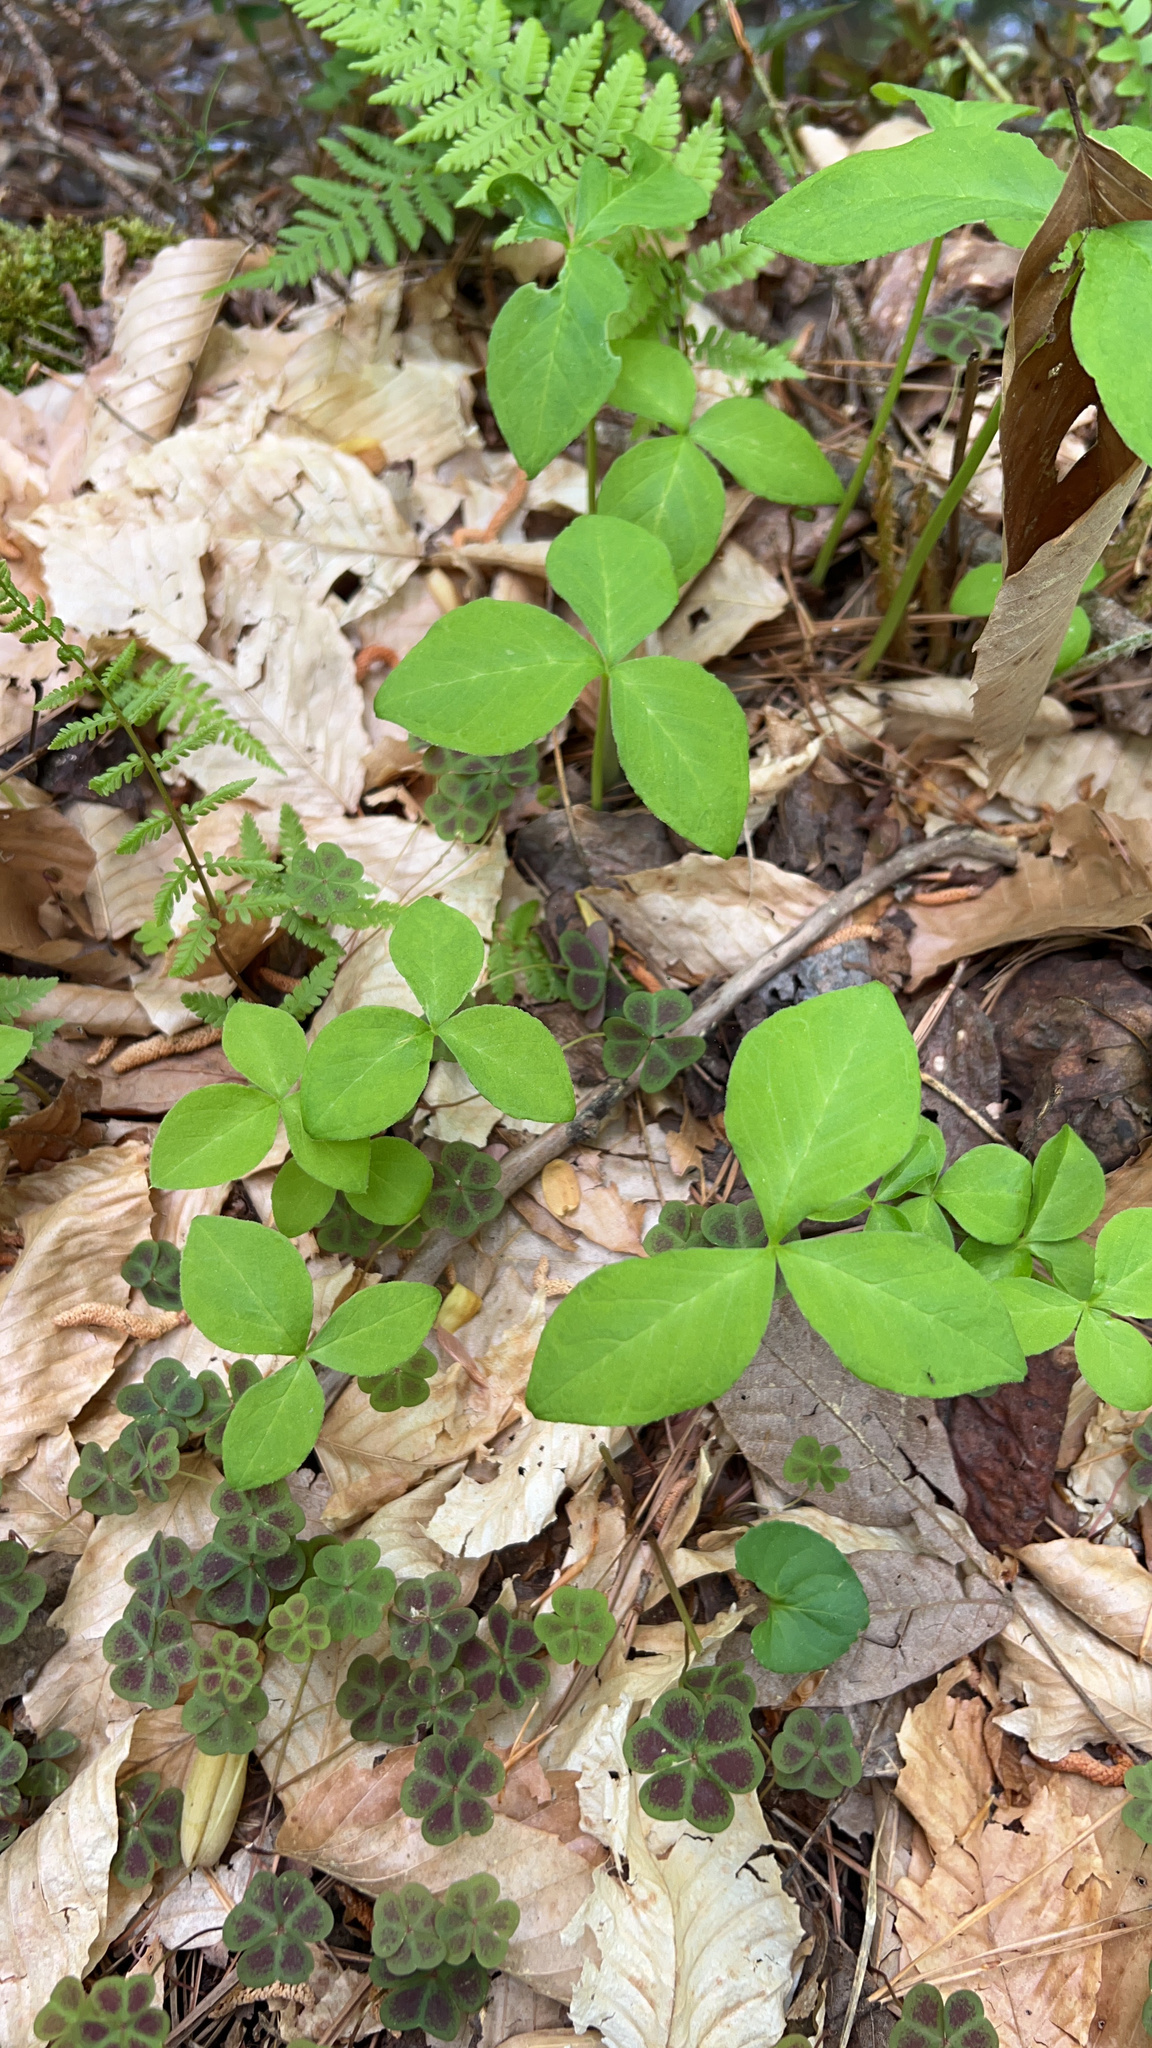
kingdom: Plantae
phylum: Tracheophyta
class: Liliopsida
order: Alismatales
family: Araceae
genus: Arisaema
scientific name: Arisaema triphyllum
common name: Jack-in-the-pulpit
